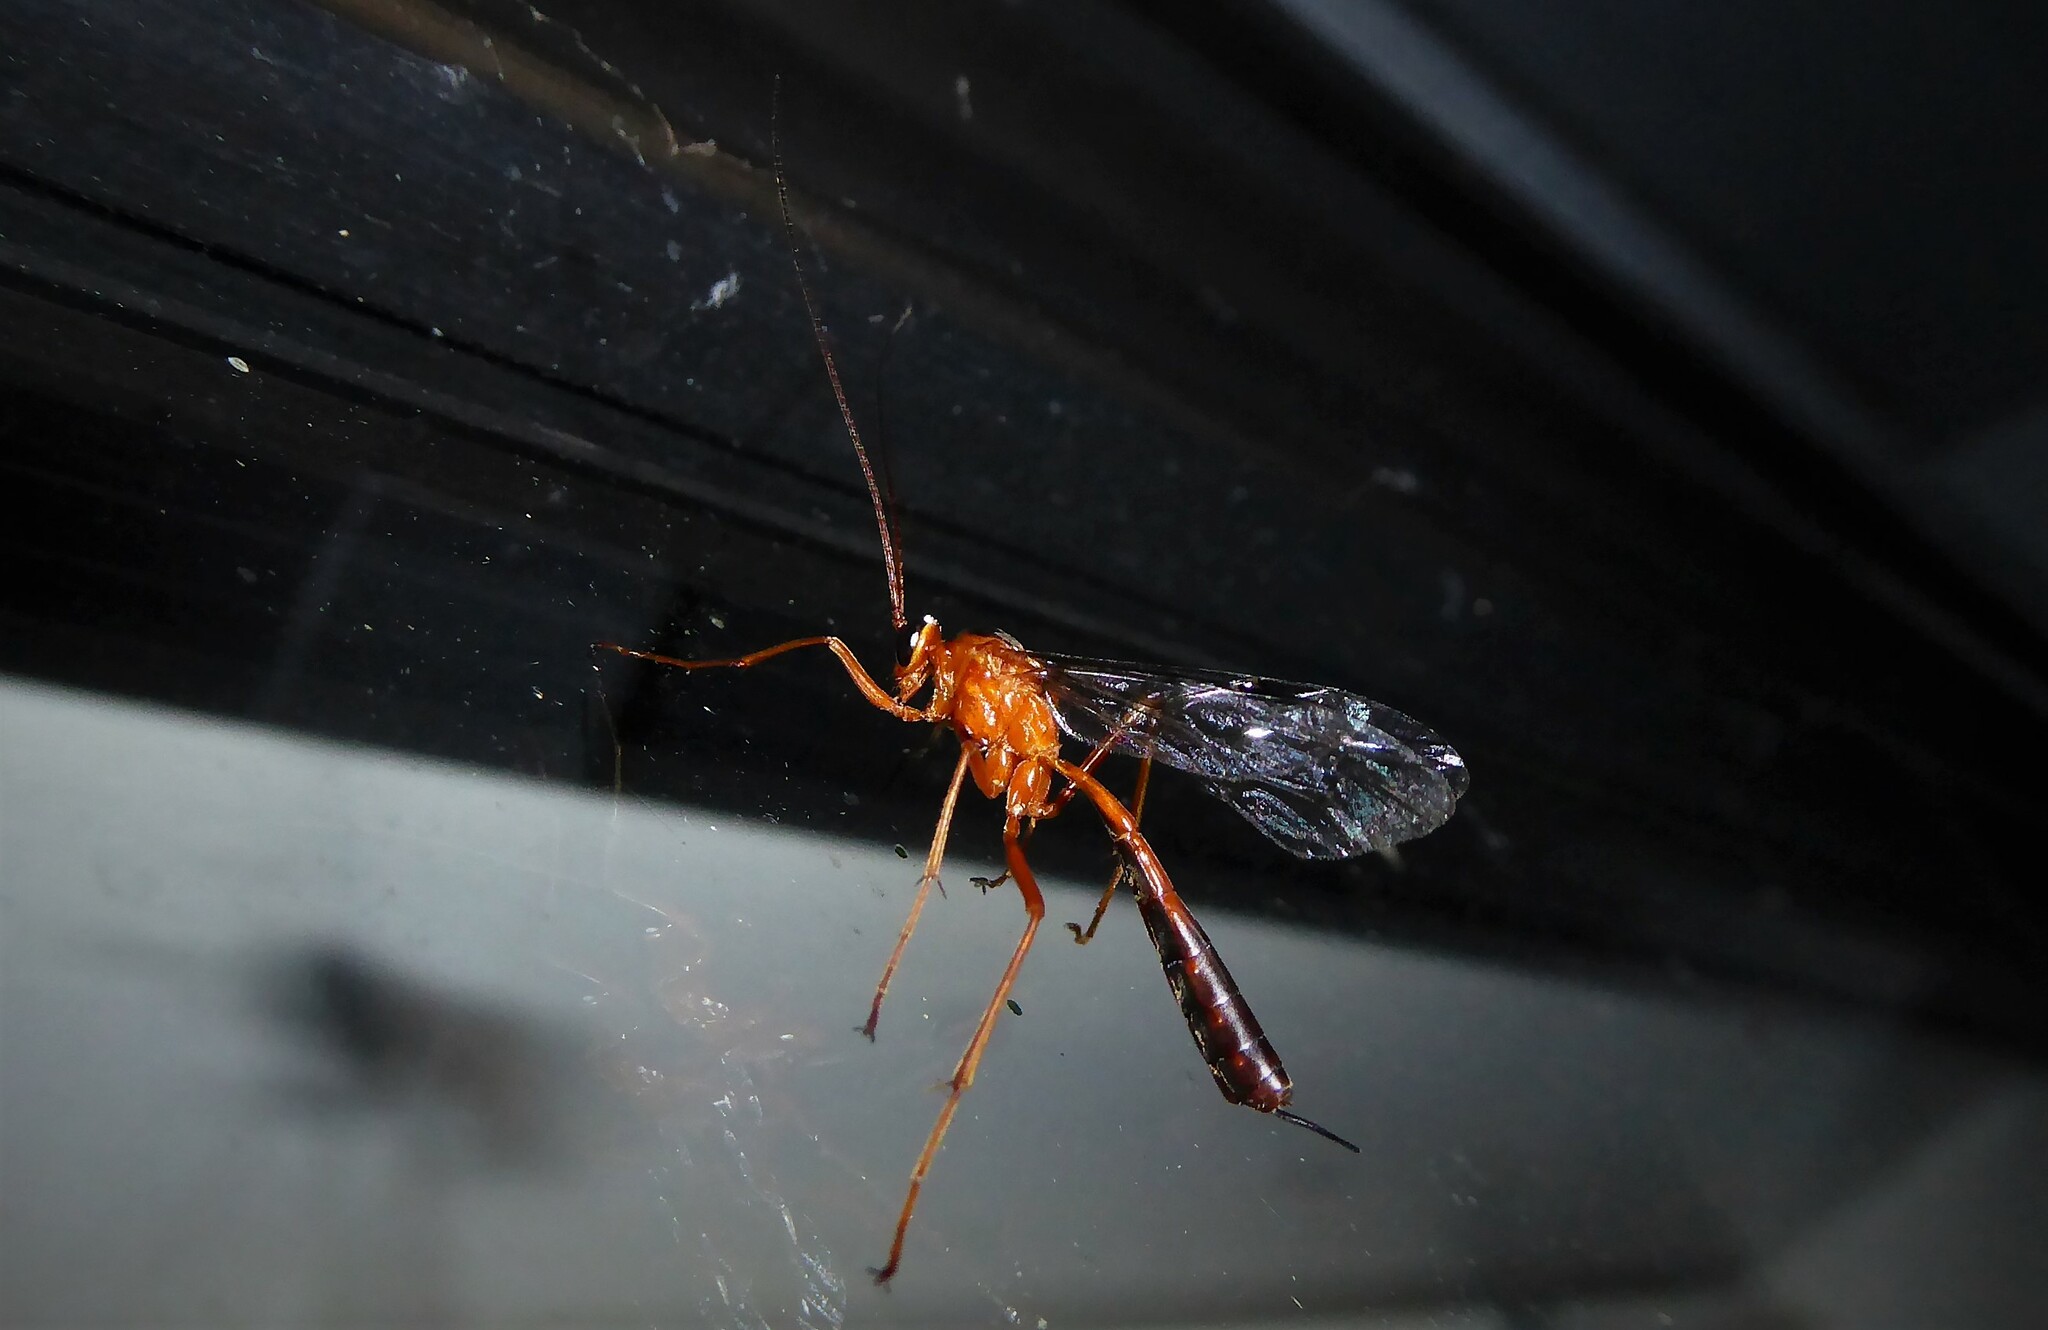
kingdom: Animalia
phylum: Arthropoda
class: Insecta
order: Hymenoptera
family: Ichneumonidae
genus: Netelia
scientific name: Netelia ephippiata
